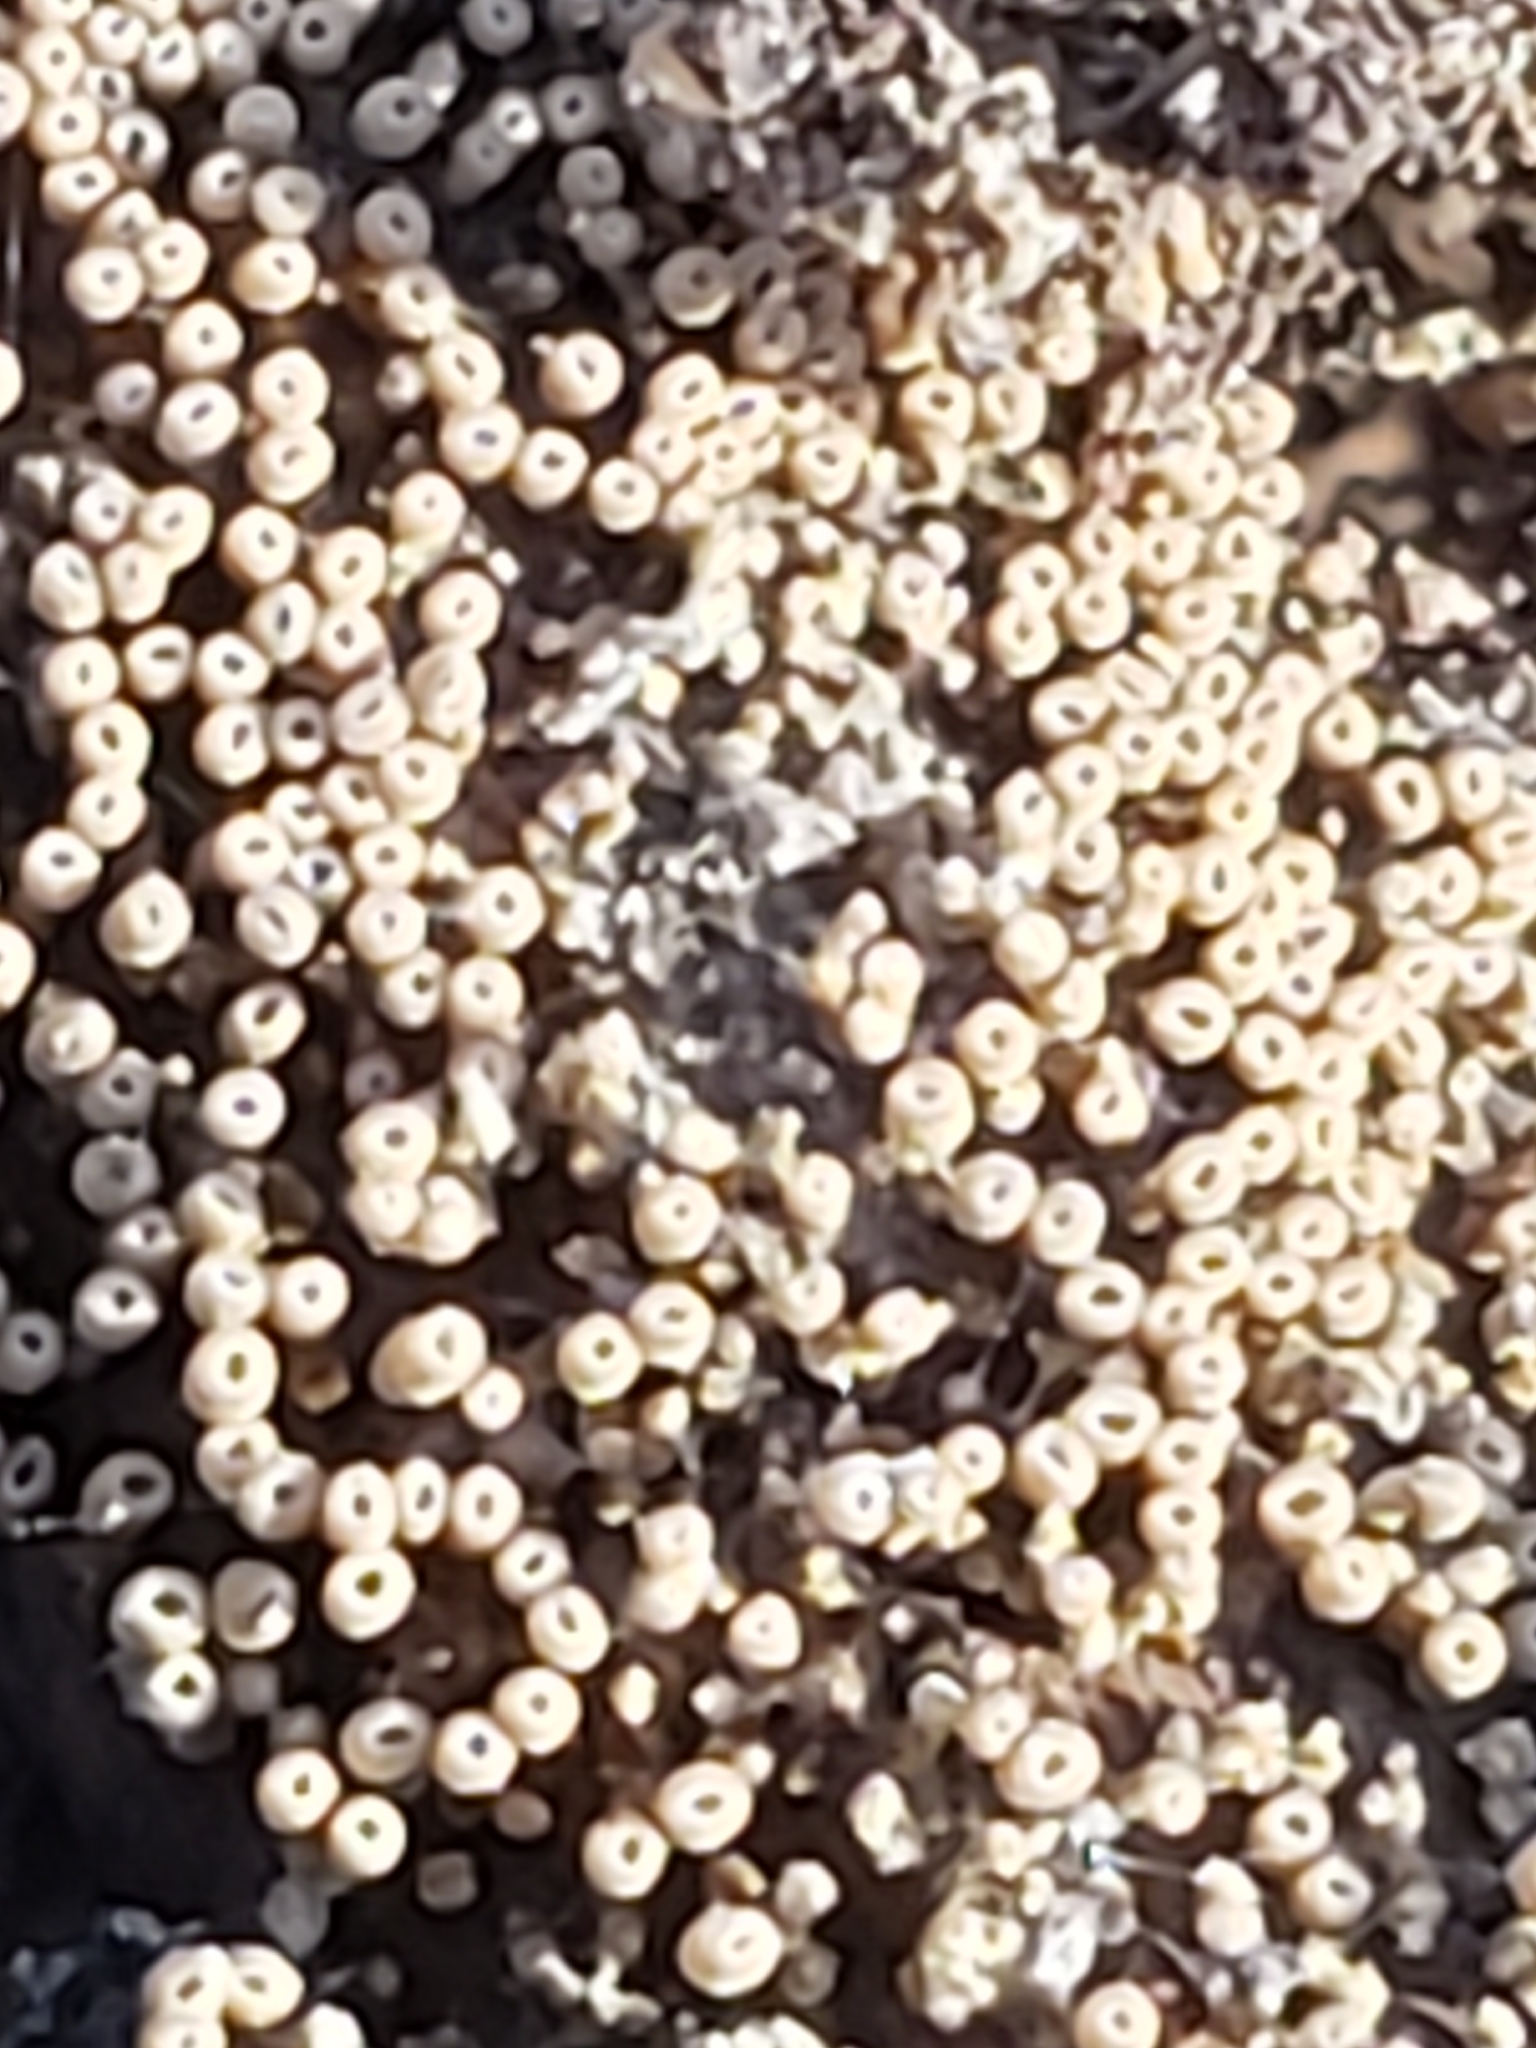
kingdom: Fungi
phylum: Basidiomycota
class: Agaricomycetes
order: Agaricales
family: Marasmiaceae
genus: Henningsomyces
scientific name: Henningsomyces candidus
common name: White tubelet
